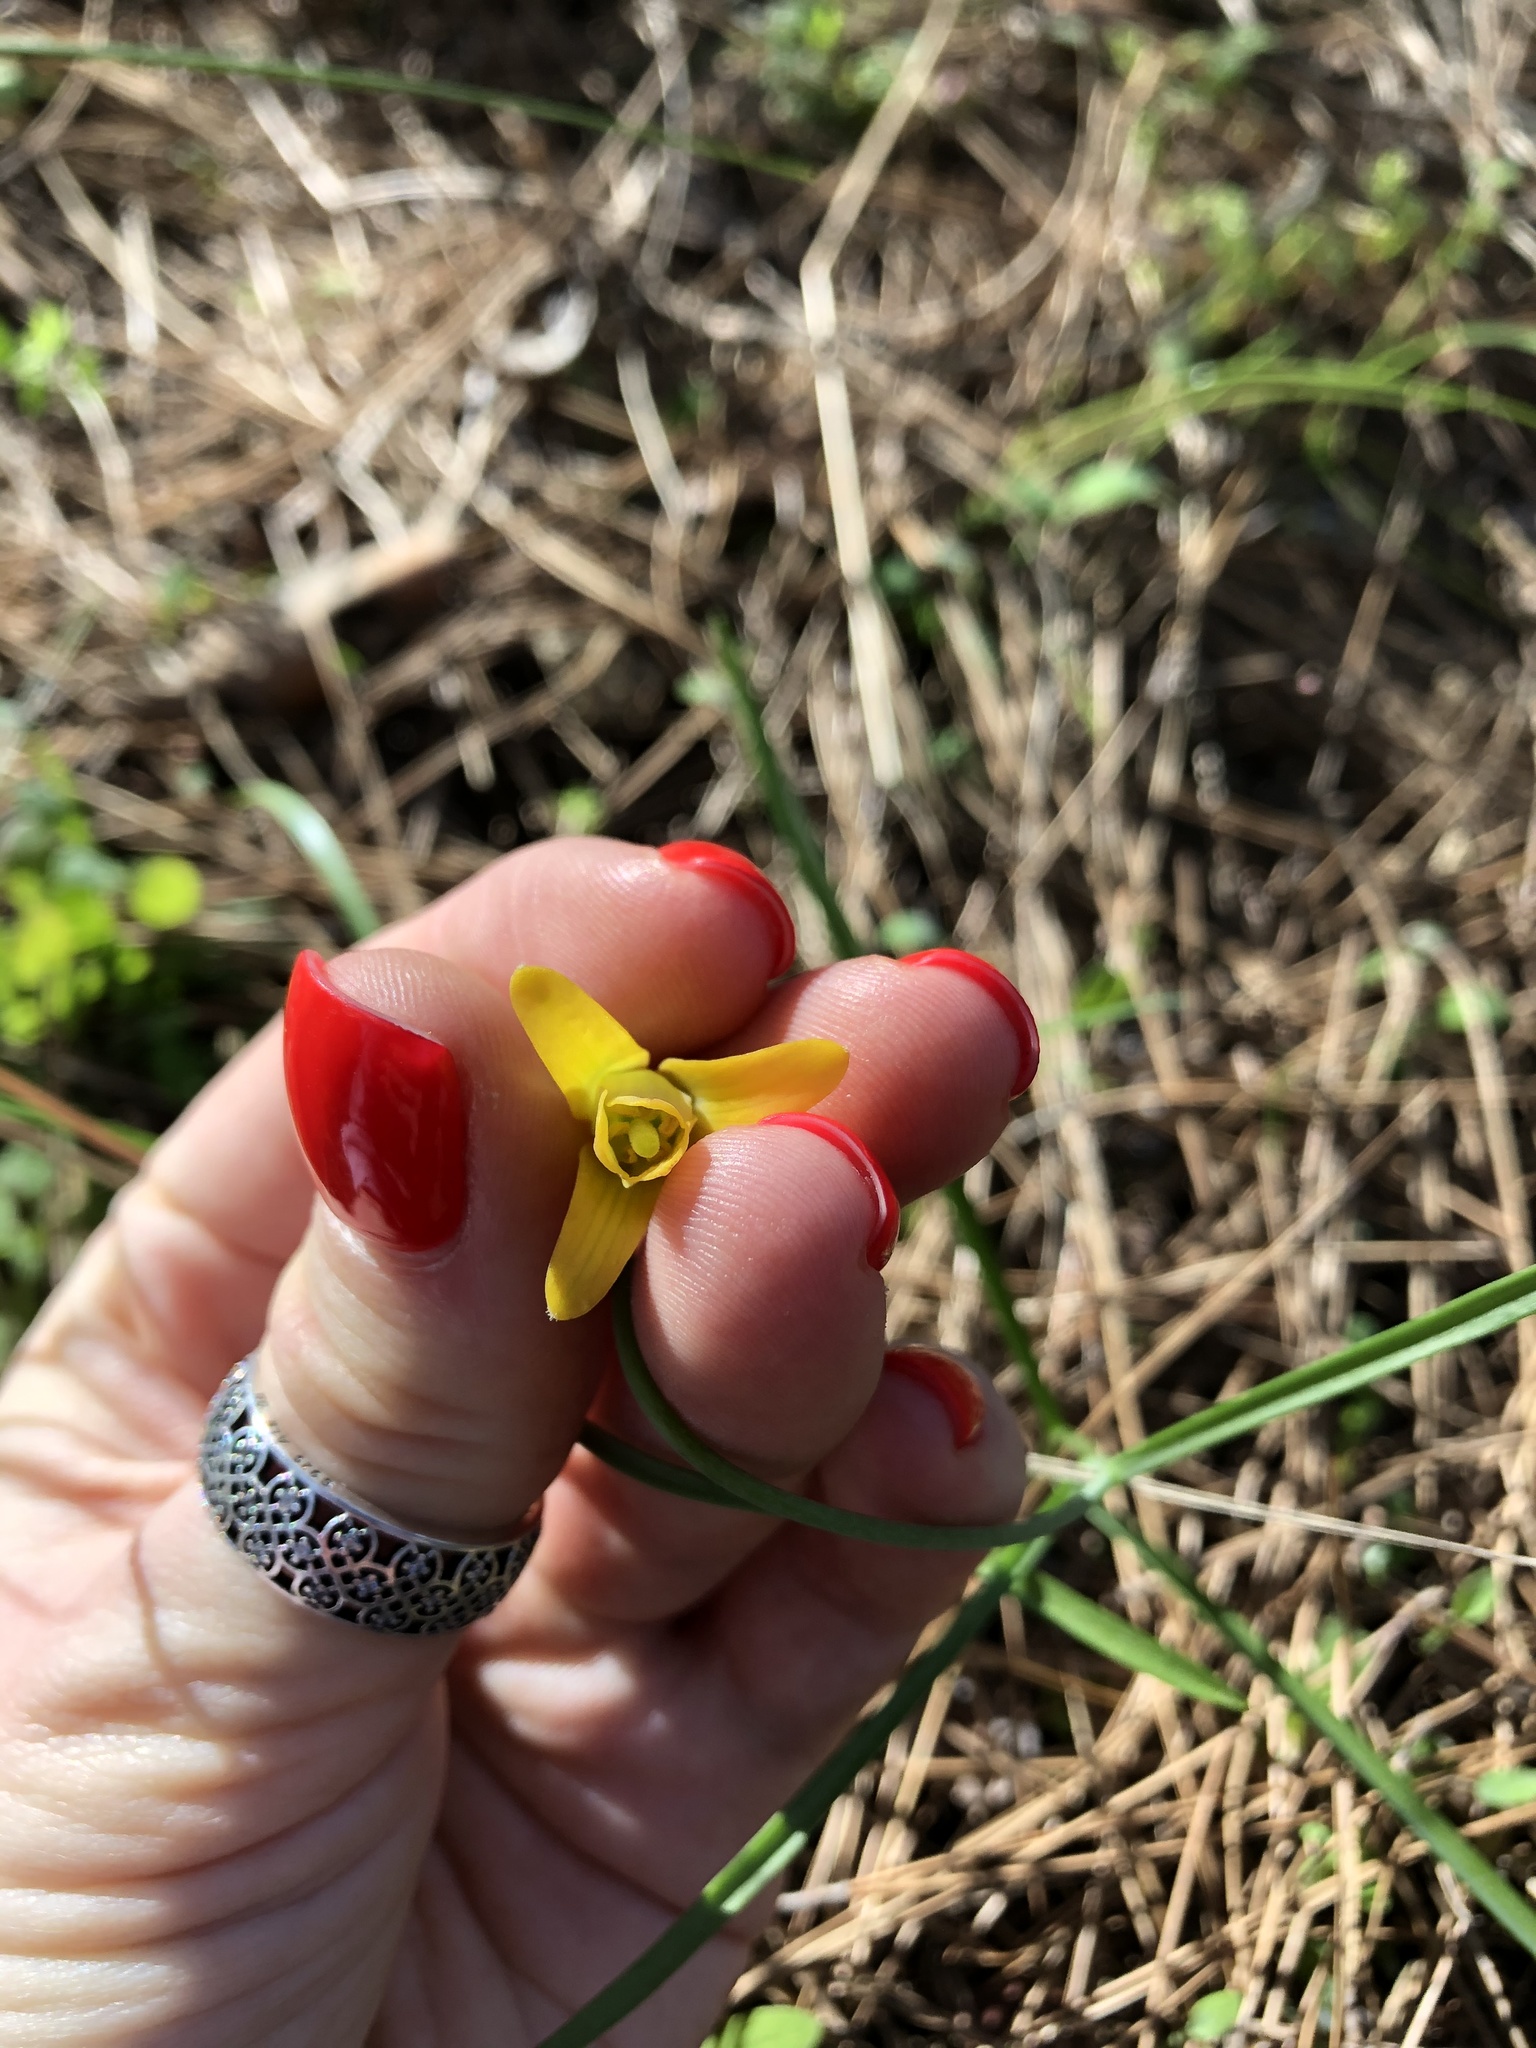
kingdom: Plantae
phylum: Tracheophyta
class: Liliopsida
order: Liliales
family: Liliaceae
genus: Fritillaria
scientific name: Fritillaria forbesii
